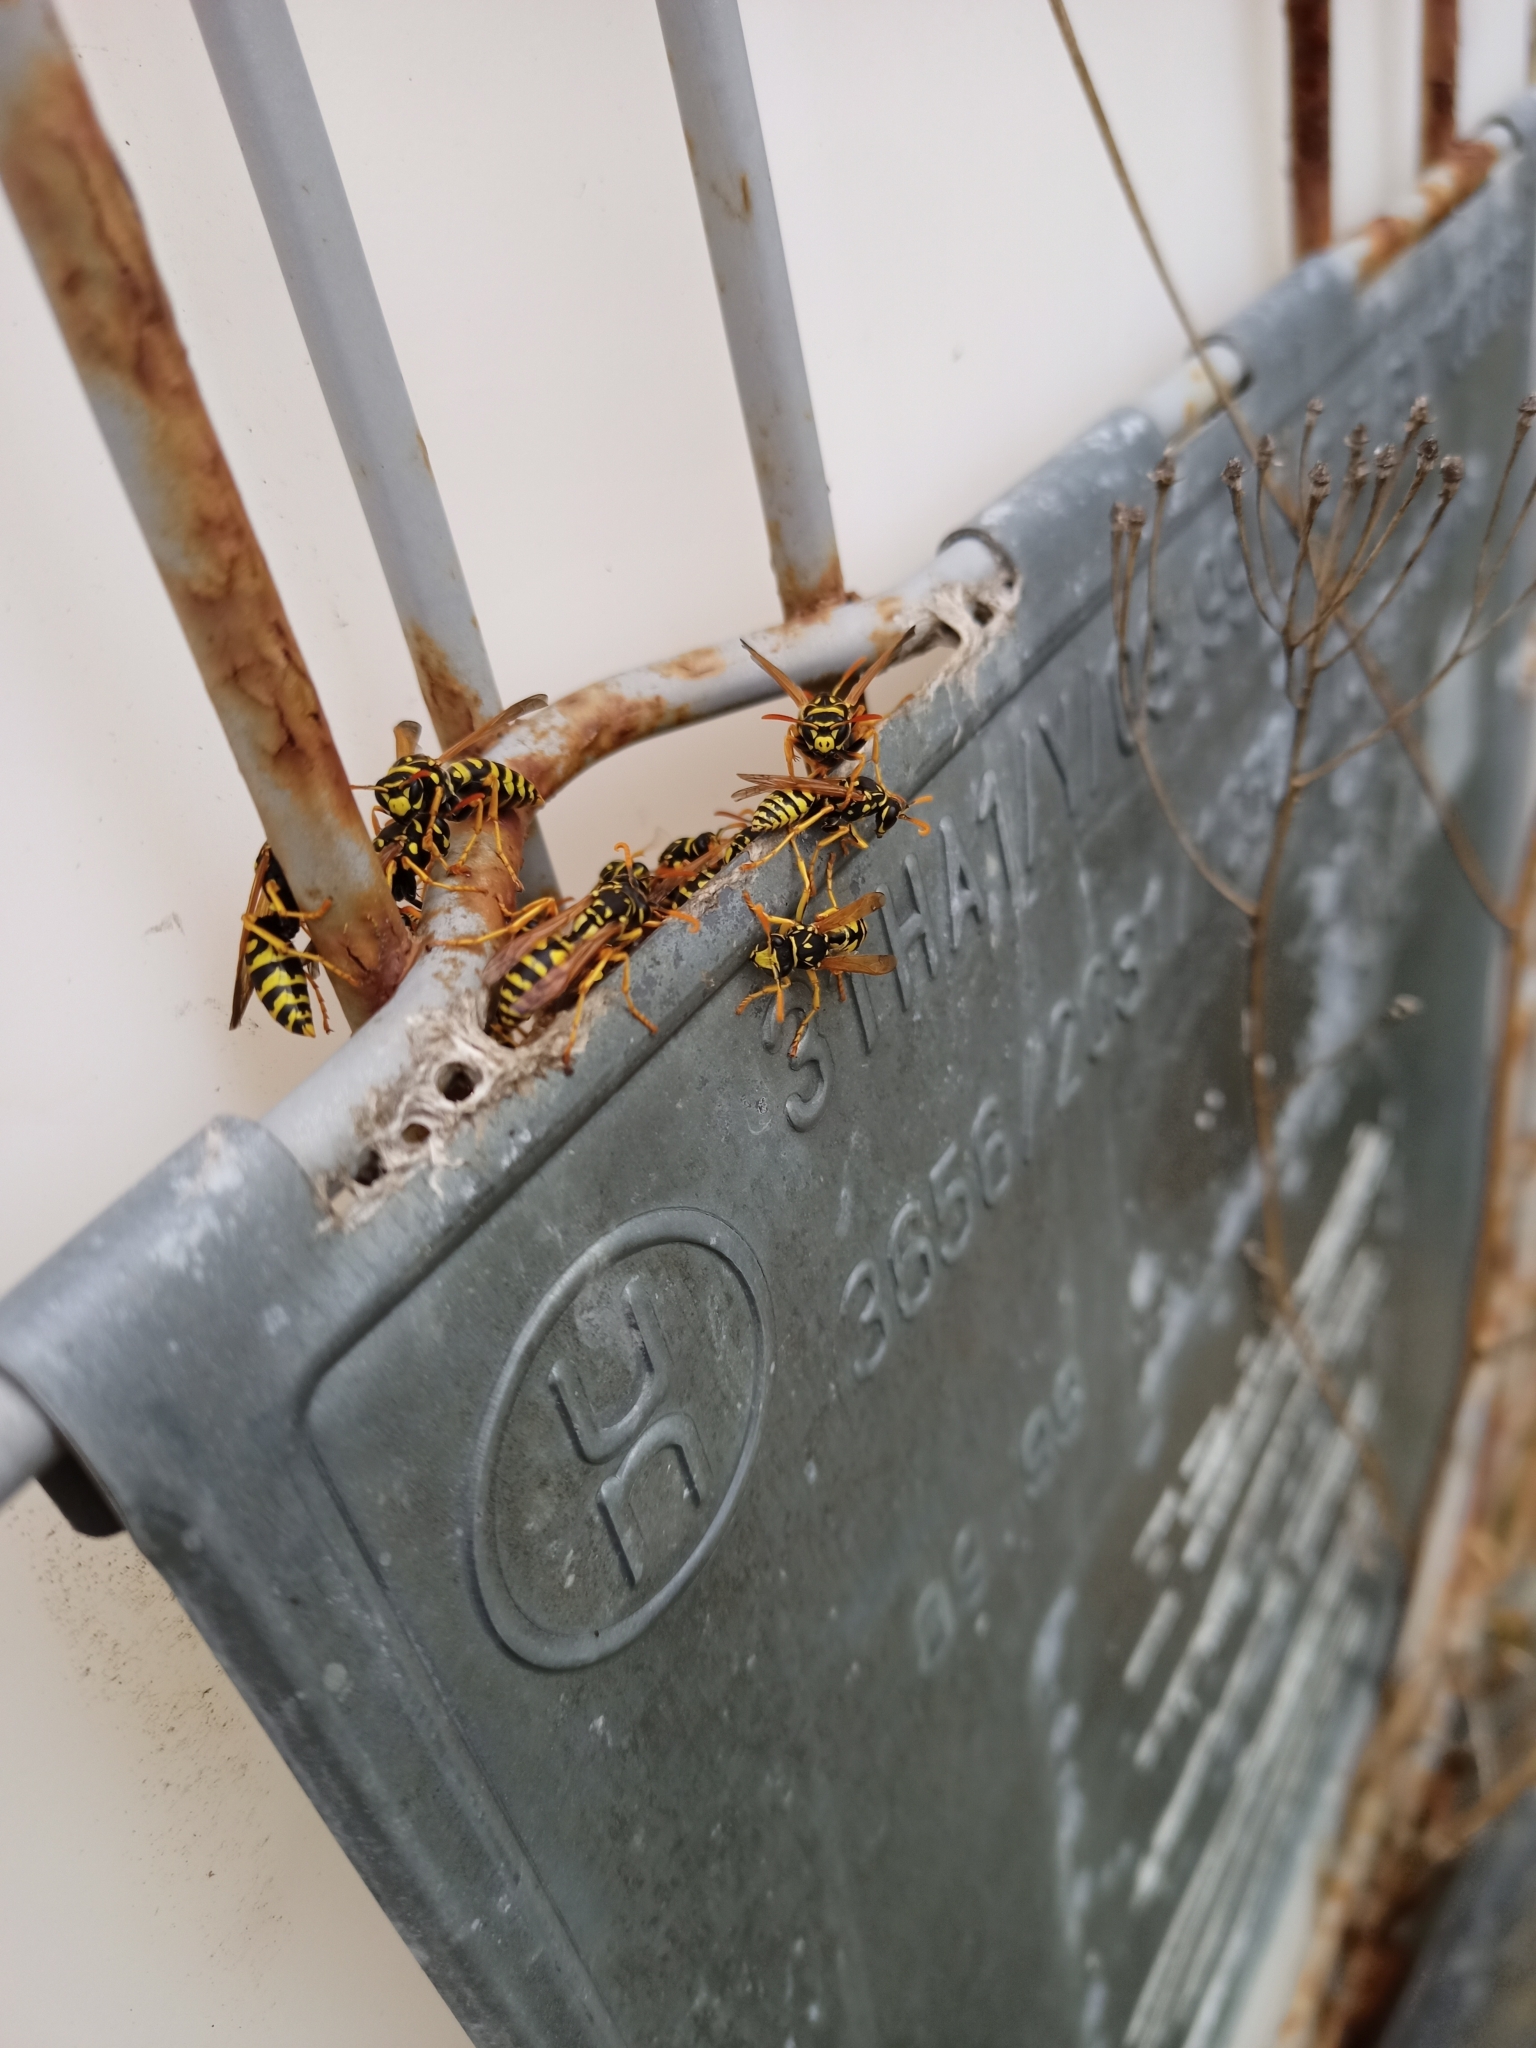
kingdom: Animalia
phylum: Arthropoda
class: Insecta
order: Hymenoptera
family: Eumenidae
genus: Polistes
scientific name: Polistes dominula
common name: Paper wasp
